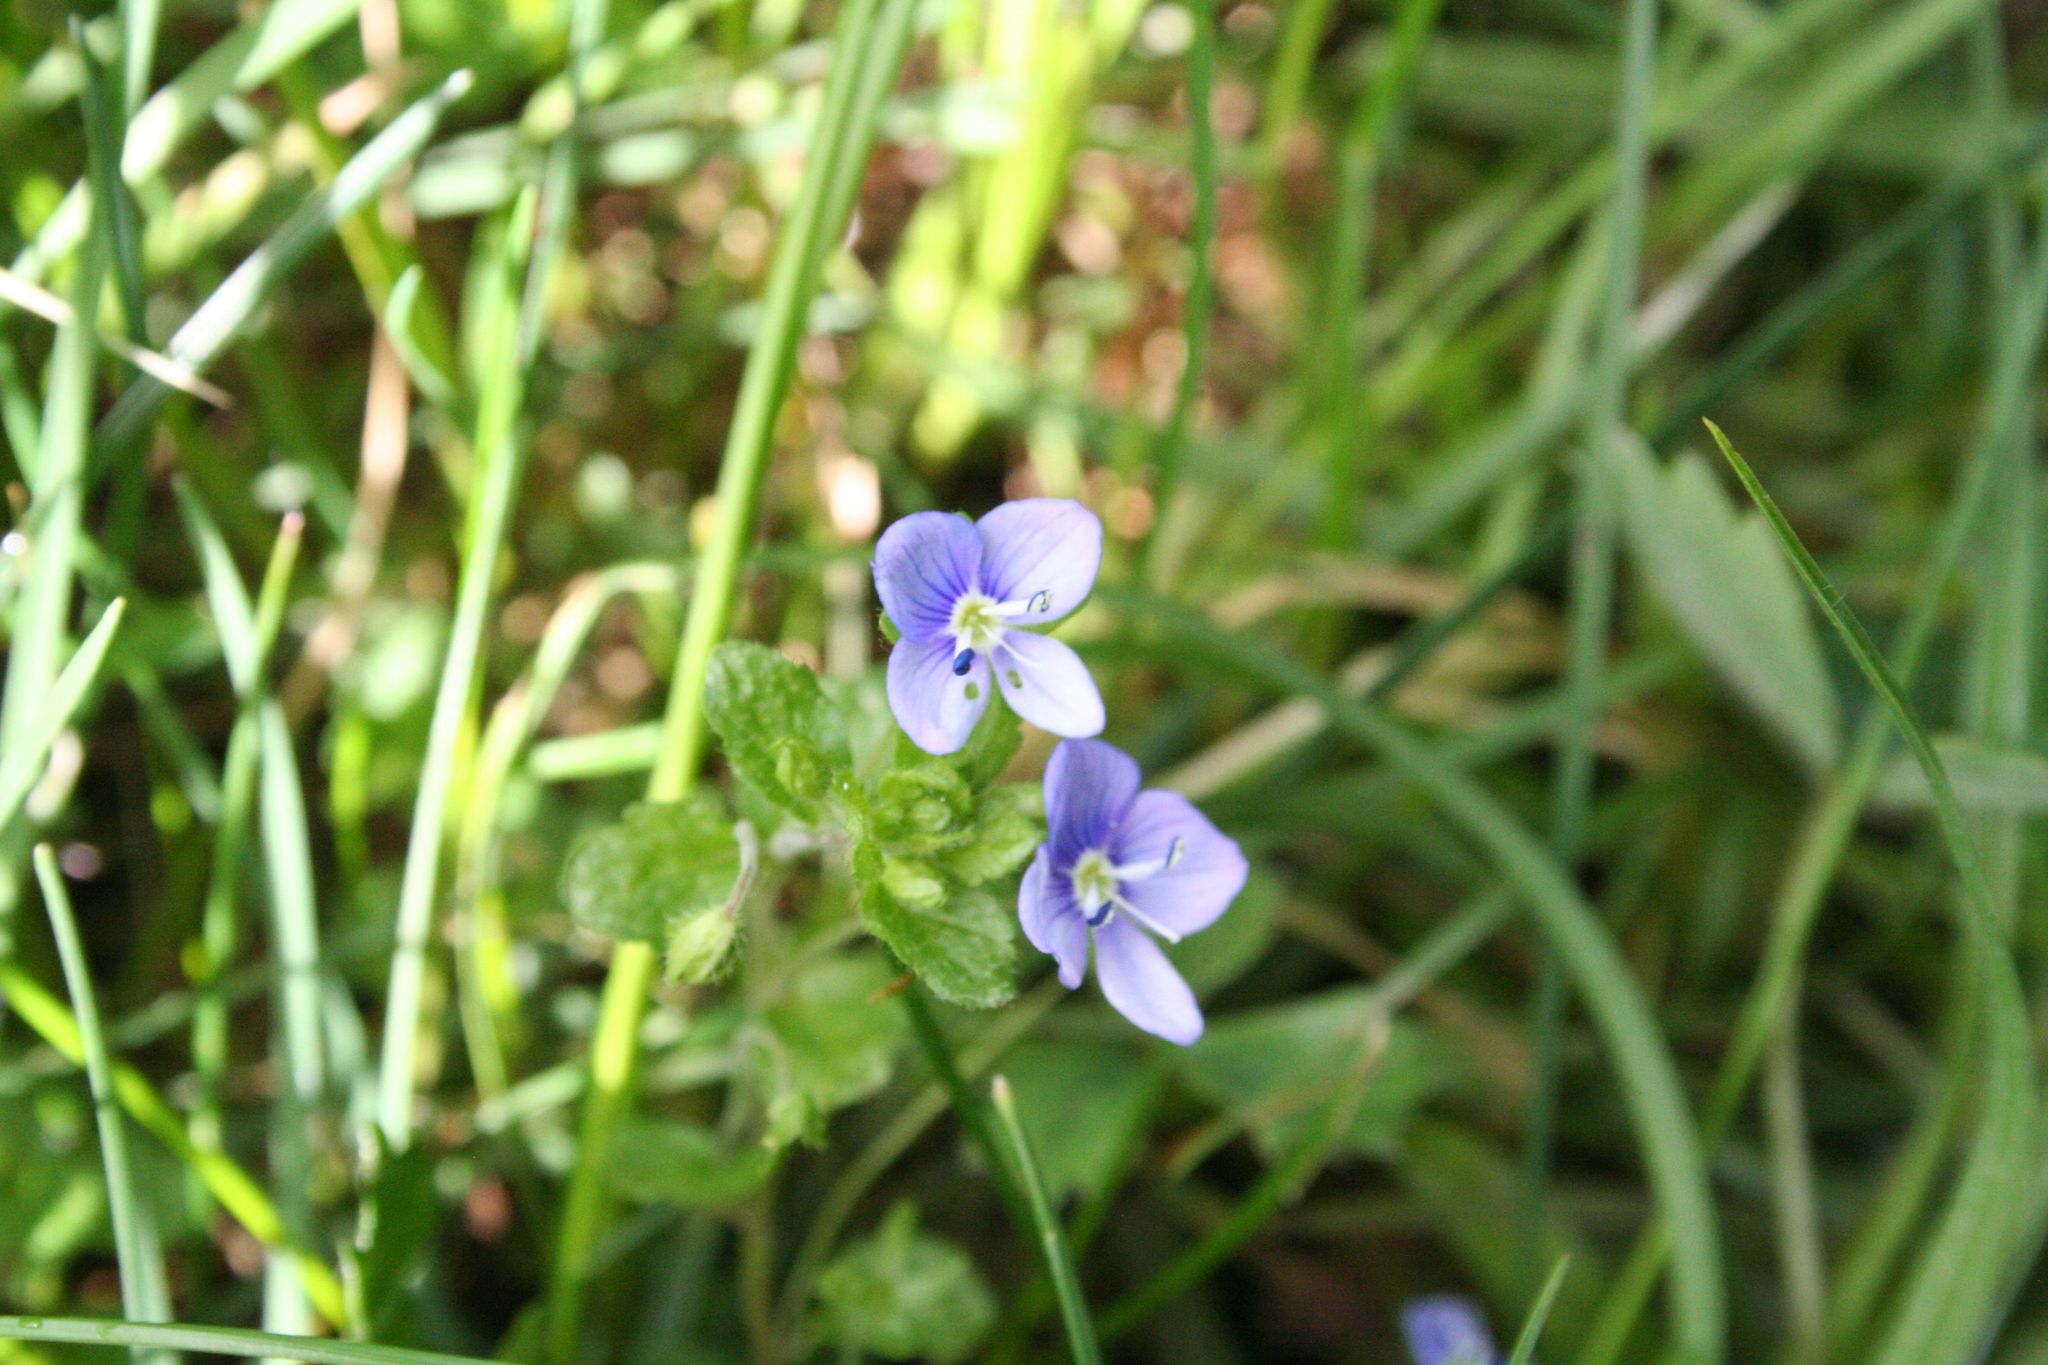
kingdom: Plantae
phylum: Tracheophyta
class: Magnoliopsida
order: Lamiales
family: Plantaginaceae
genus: Veronica
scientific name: Veronica filiformis
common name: Slender speedwell
